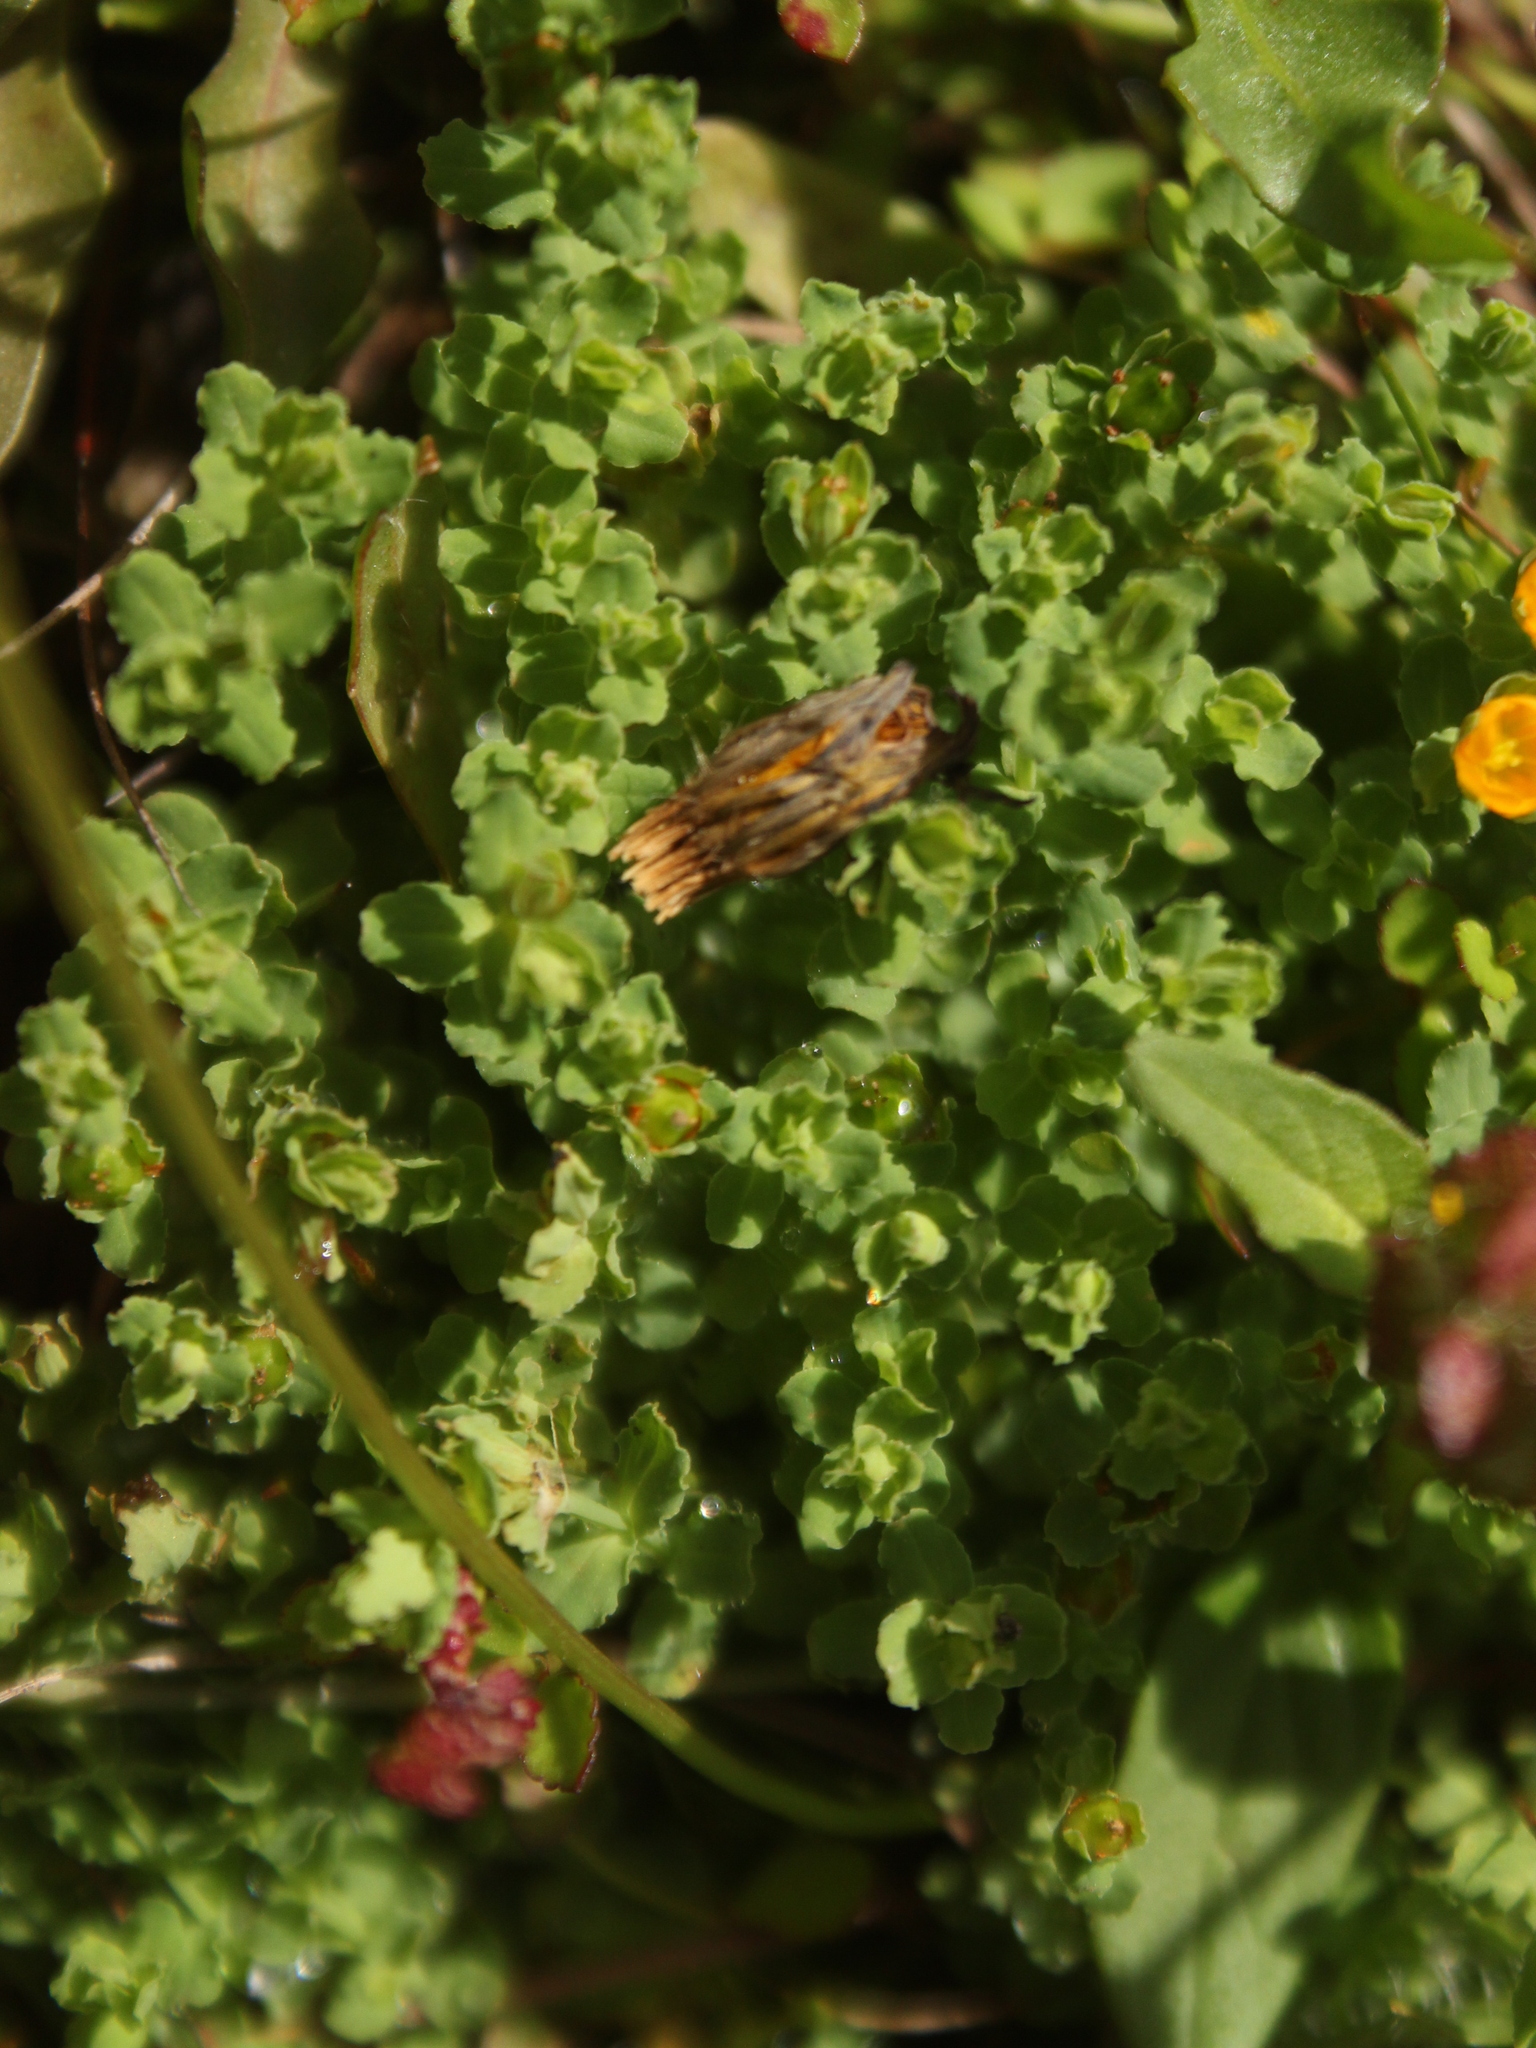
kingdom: Plantae
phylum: Tracheophyta
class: Magnoliopsida
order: Malpighiales
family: Hypericaceae
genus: Hypericum
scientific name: Hypericum japonicum
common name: Matted st. john's-wort
